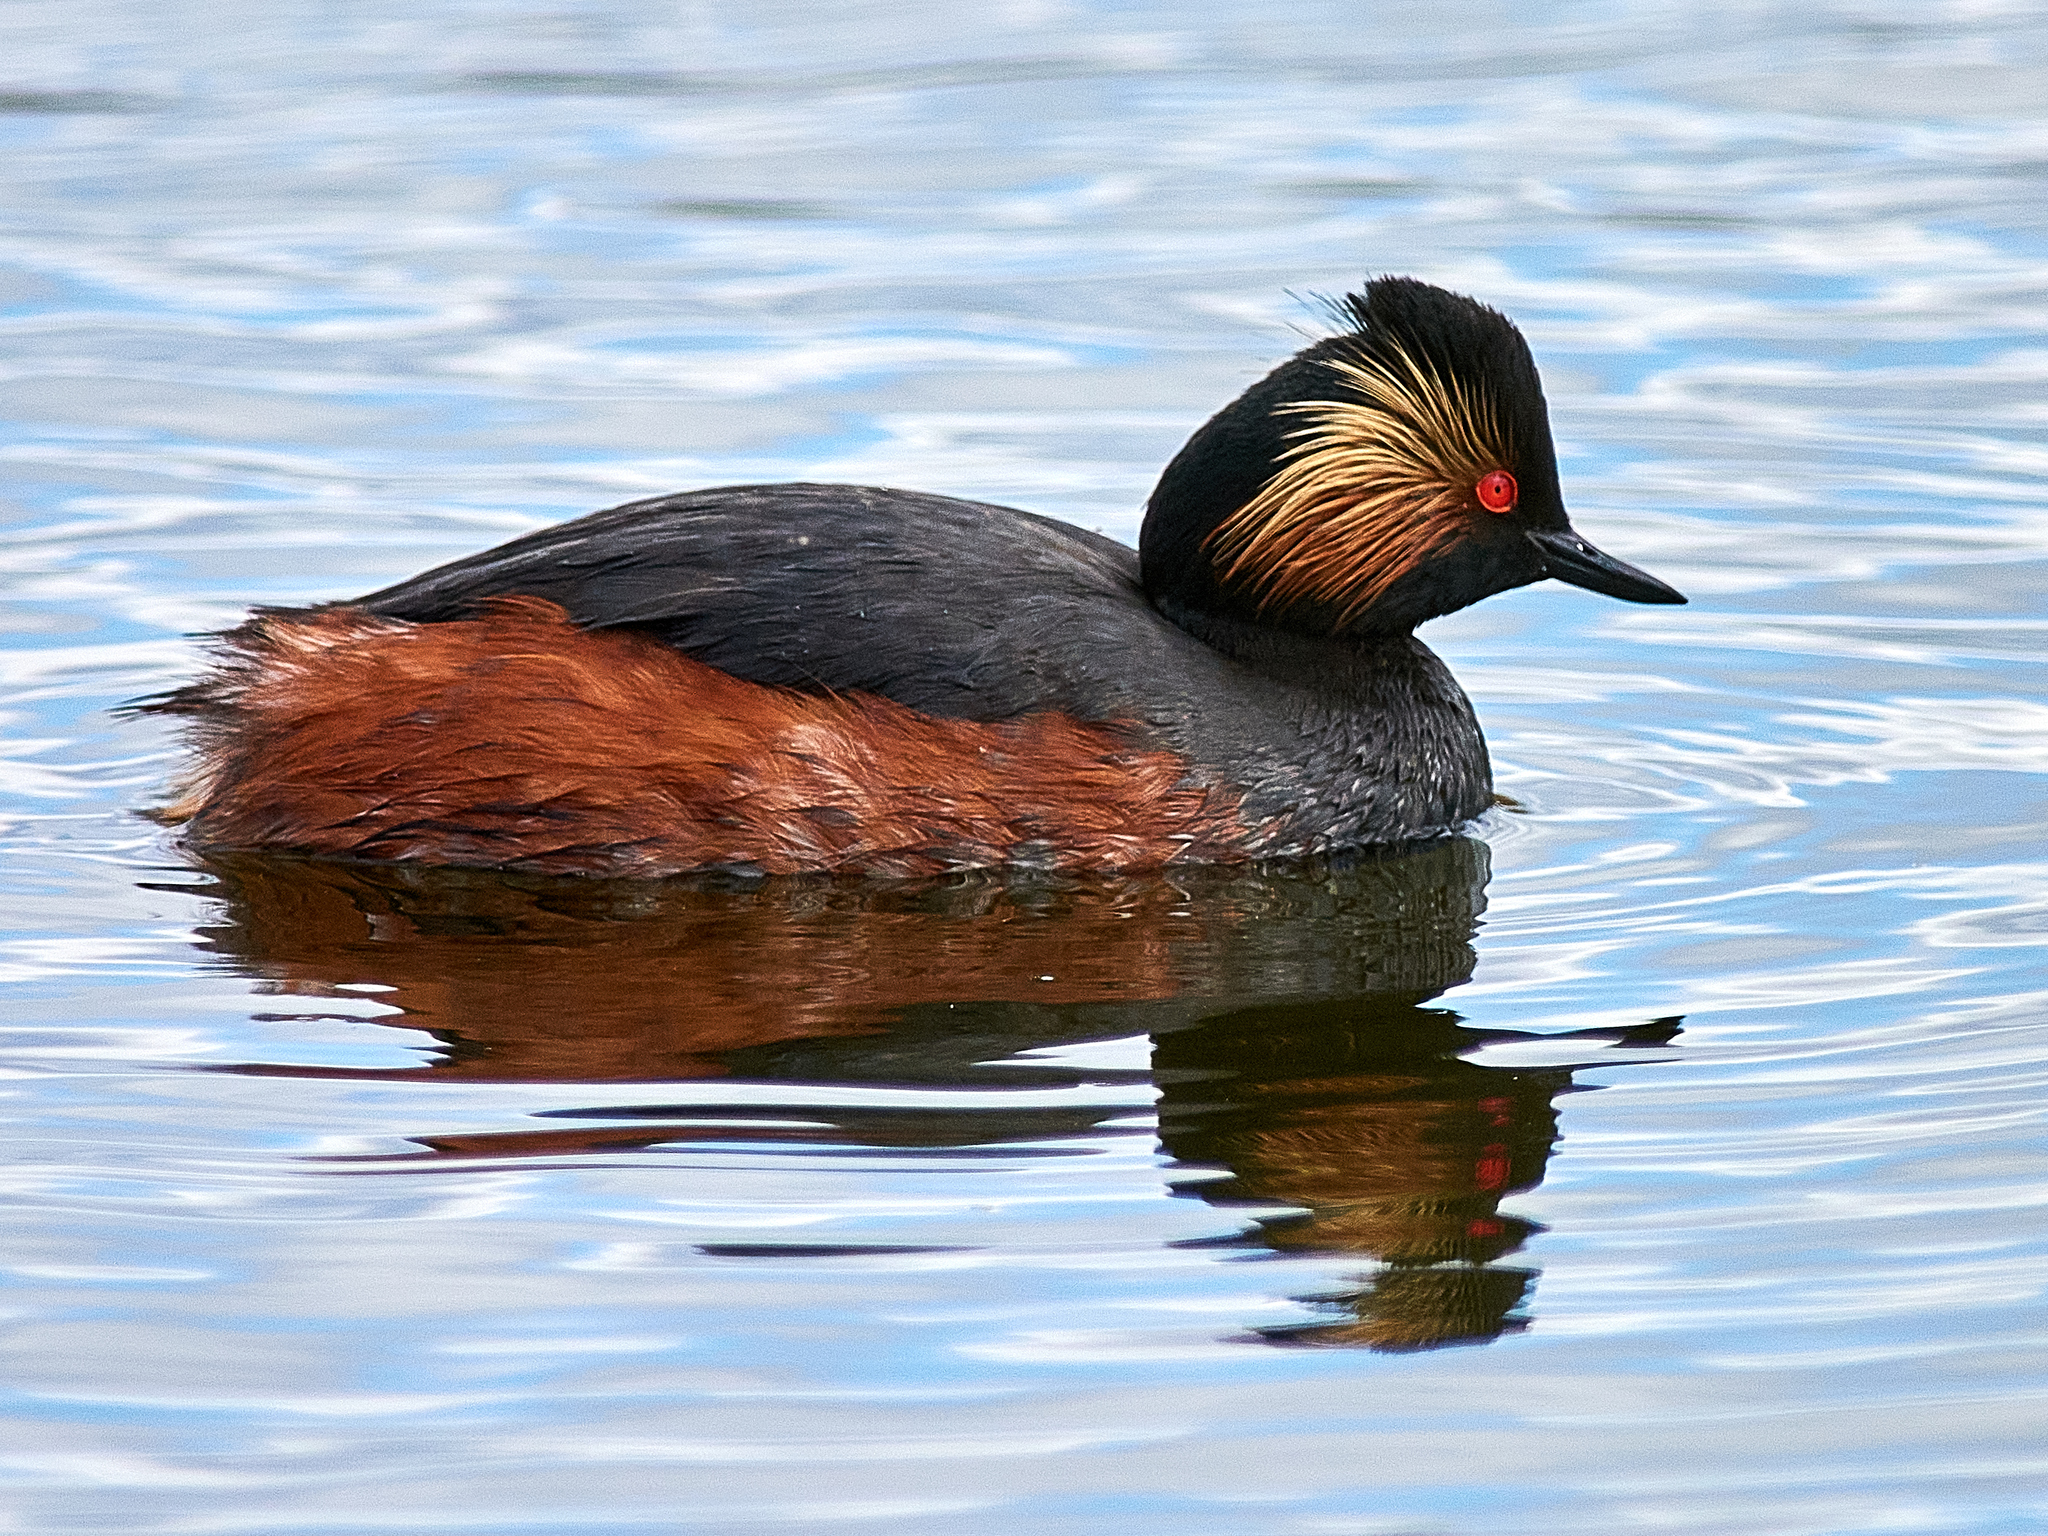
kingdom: Animalia
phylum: Chordata
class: Aves
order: Podicipediformes
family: Podicipedidae
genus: Podiceps
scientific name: Podiceps nigricollis
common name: Black-necked grebe
